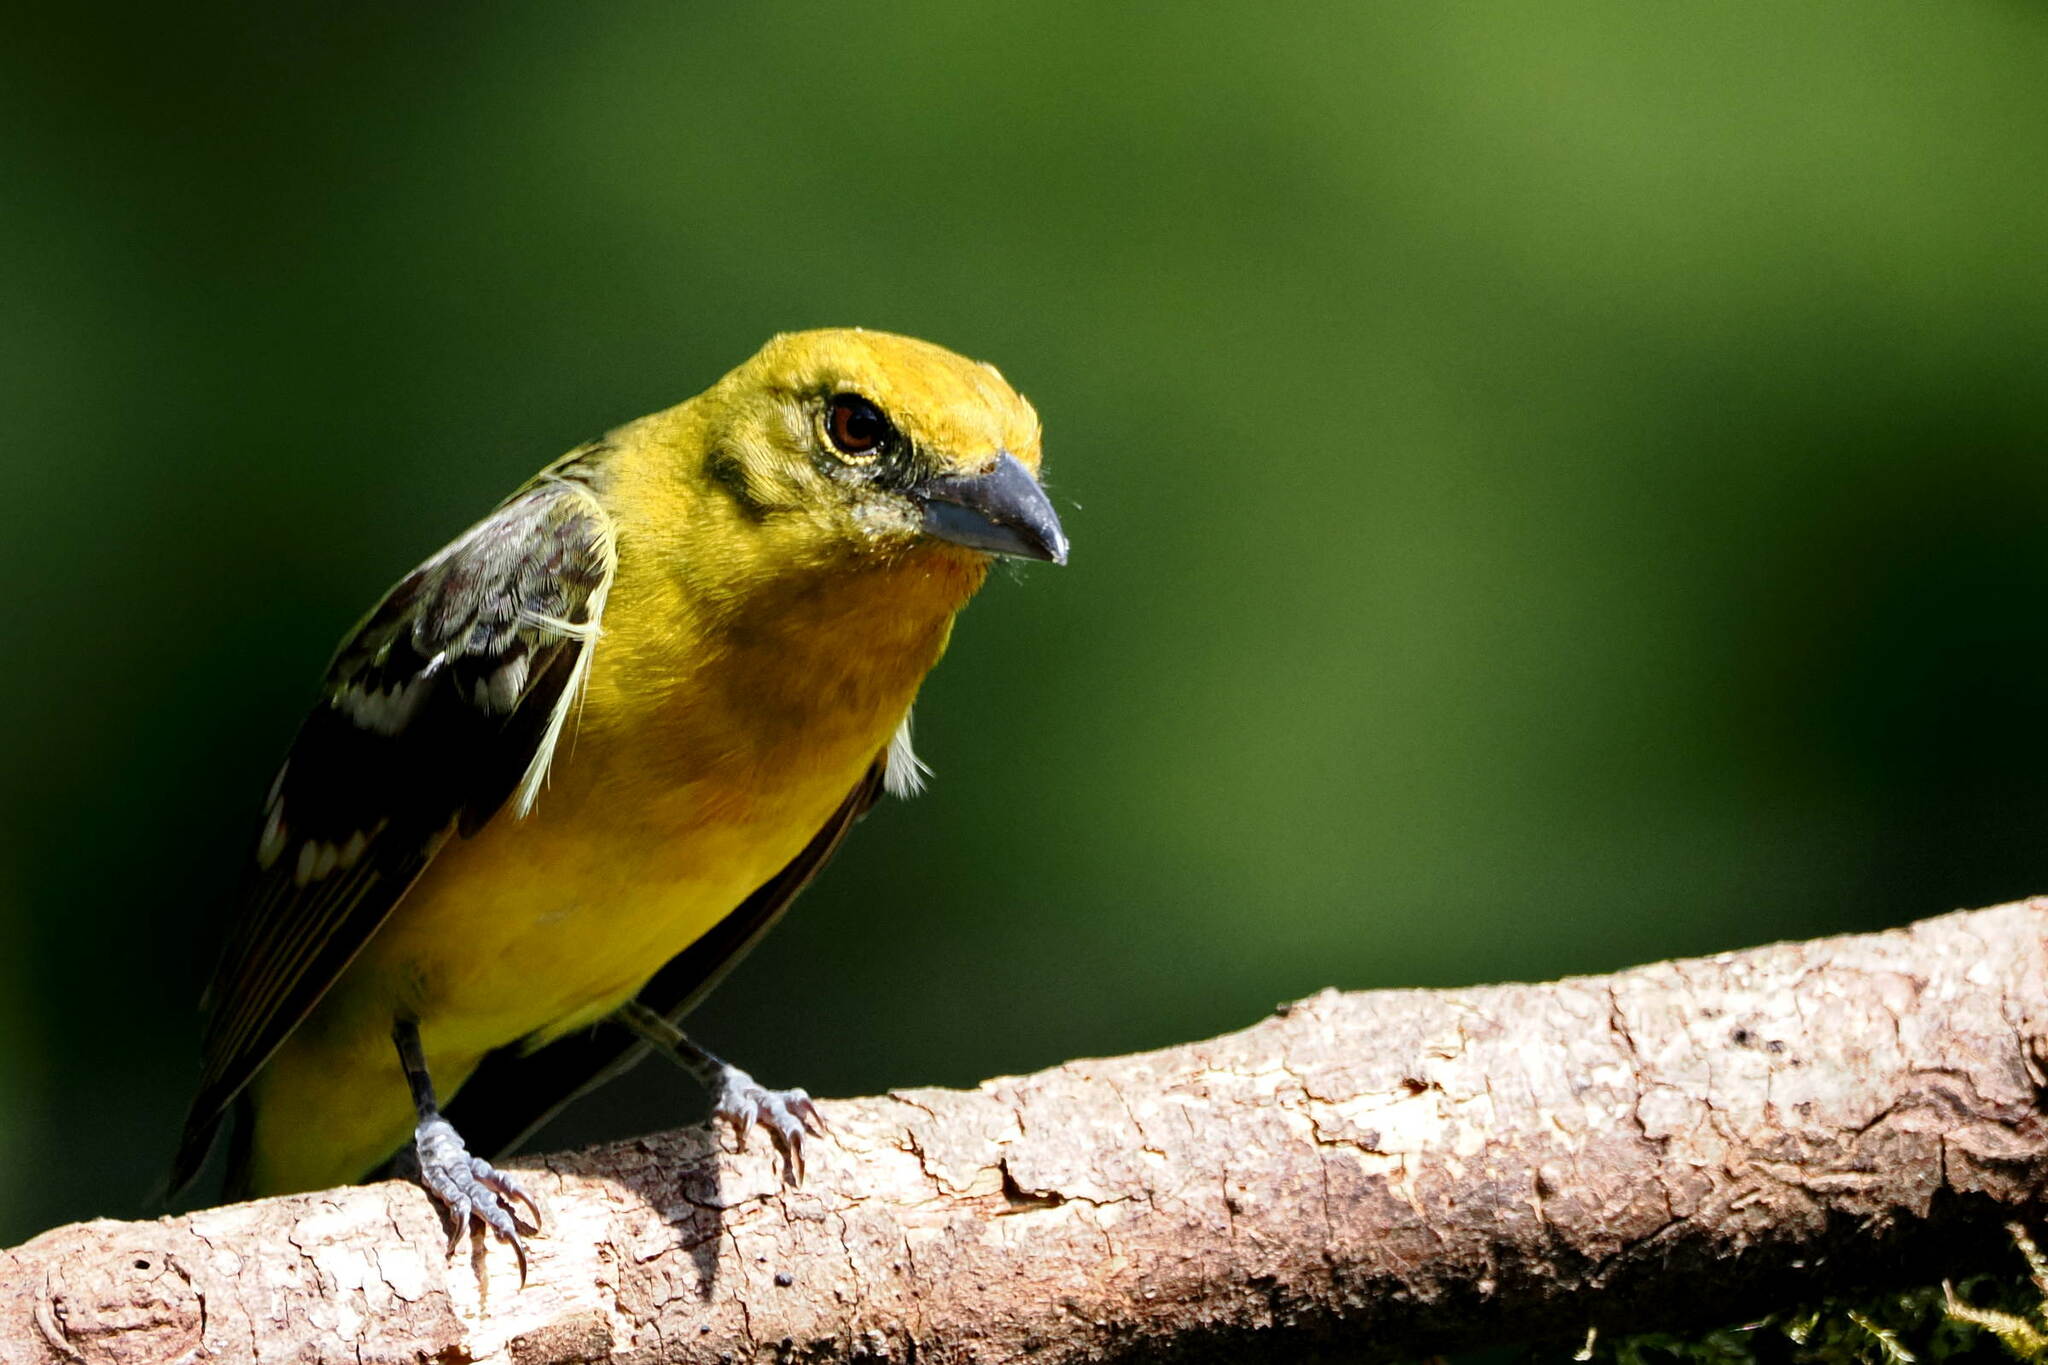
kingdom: Animalia
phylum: Chordata
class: Aves
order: Passeriformes
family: Cardinalidae
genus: Piranga
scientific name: Piranga bidentata
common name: Flame-colored tanager
